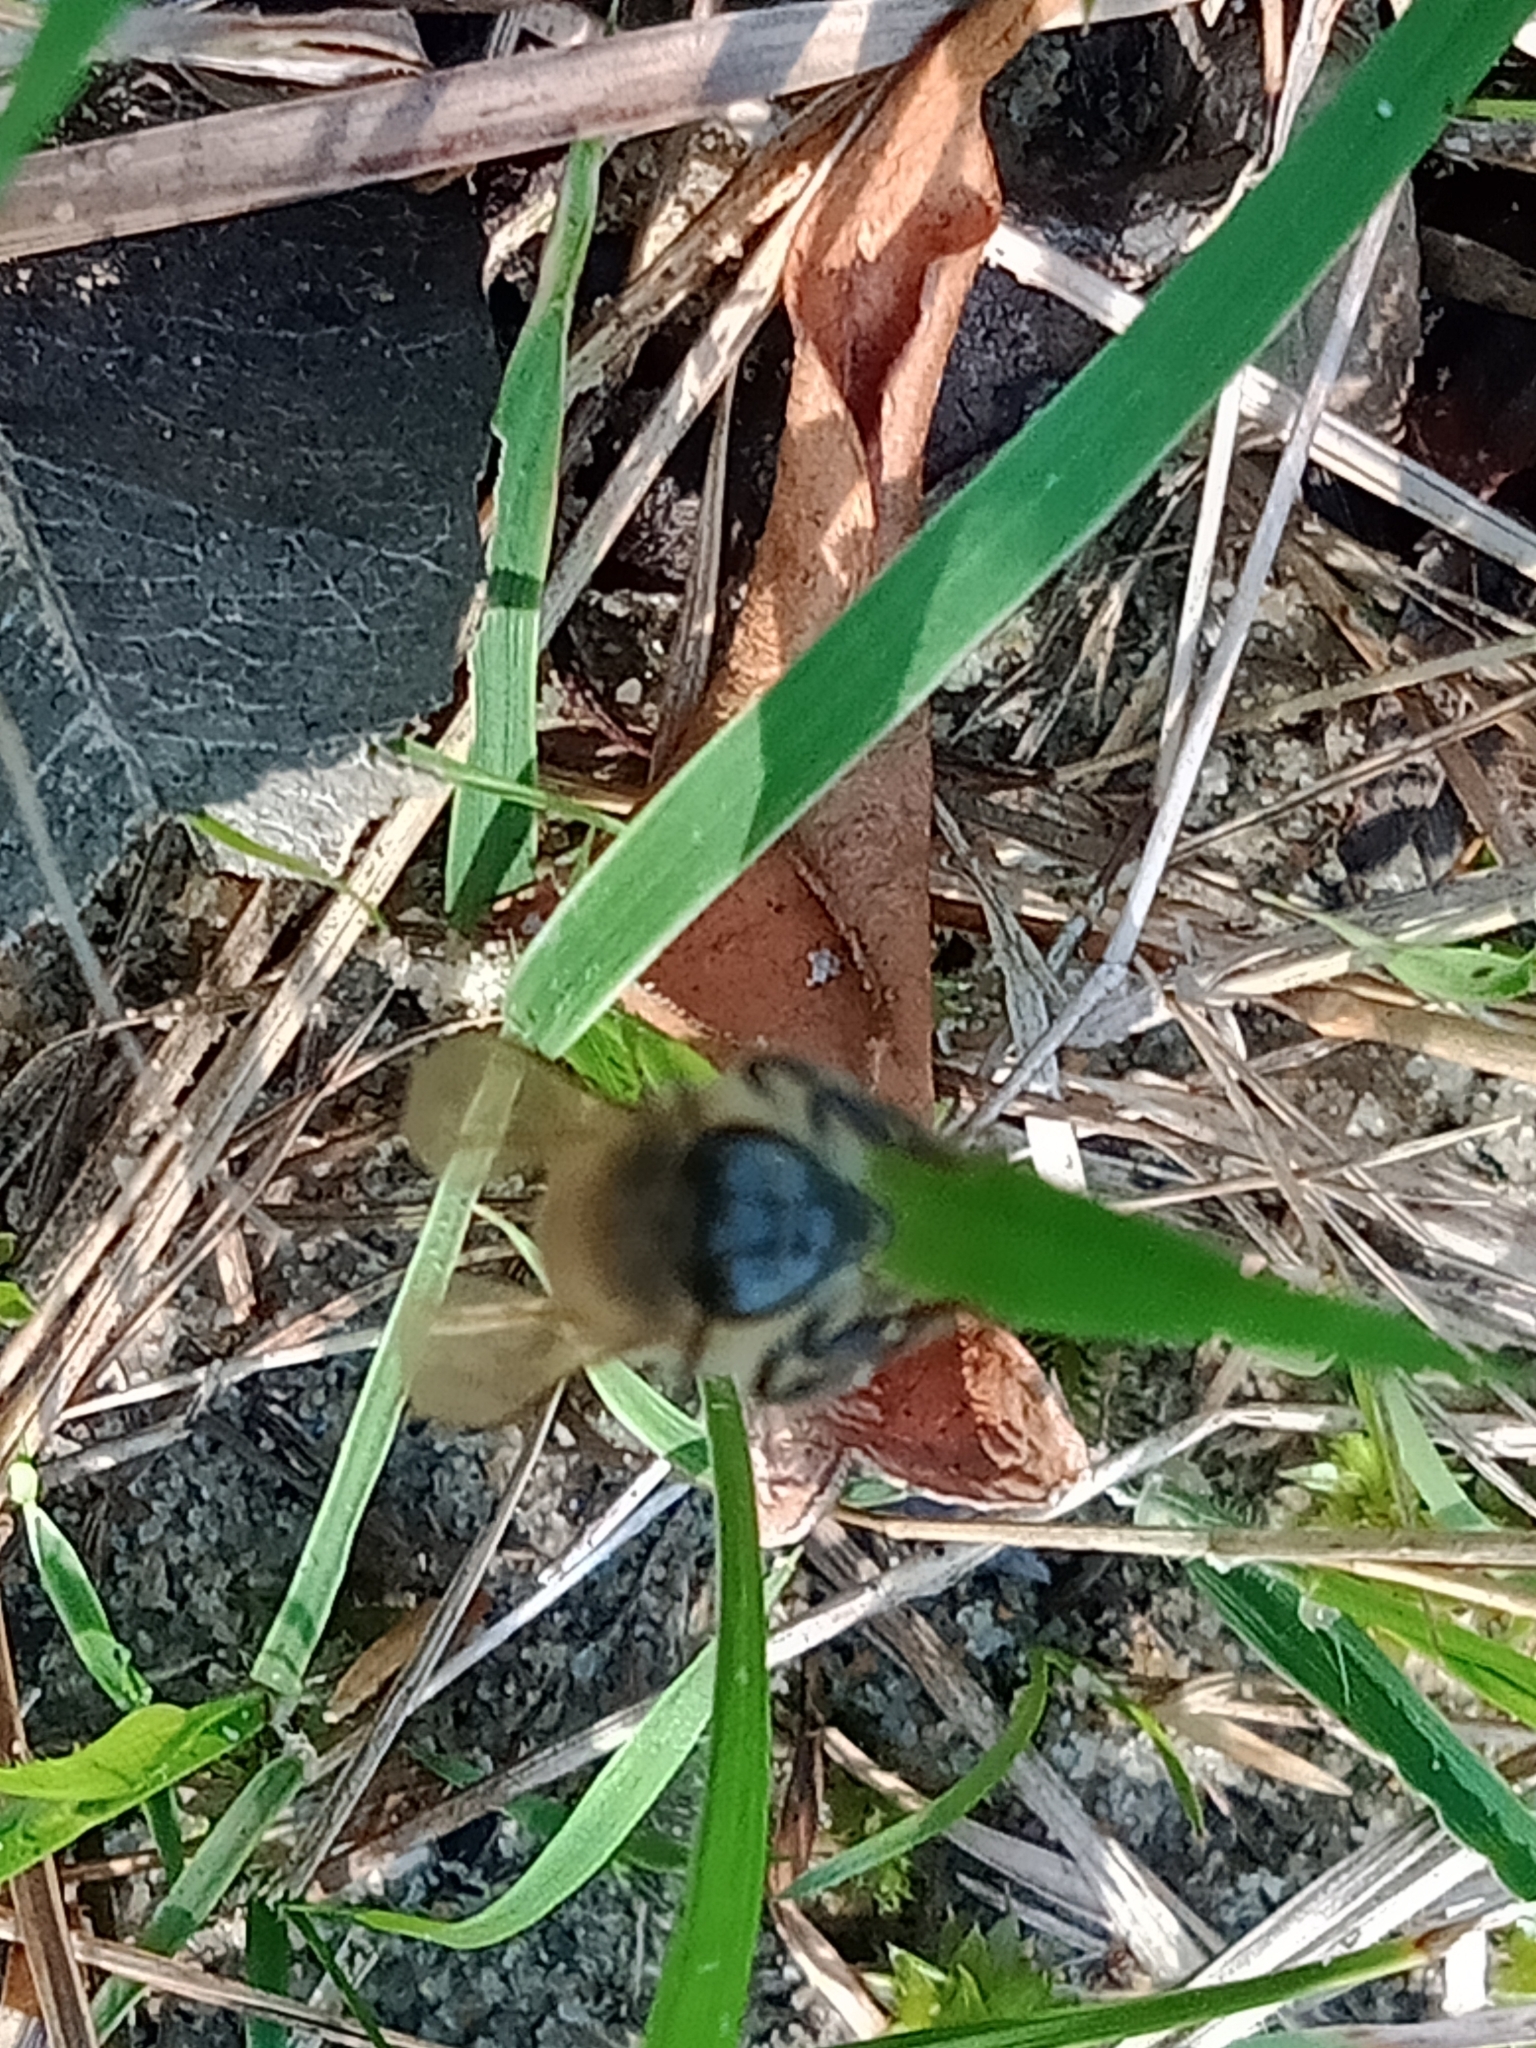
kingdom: Animalia
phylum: Arthropoda
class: Insecta
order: Hymenoptera
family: Apidae
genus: Apis
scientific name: Apis mellifera
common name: Honey bee
